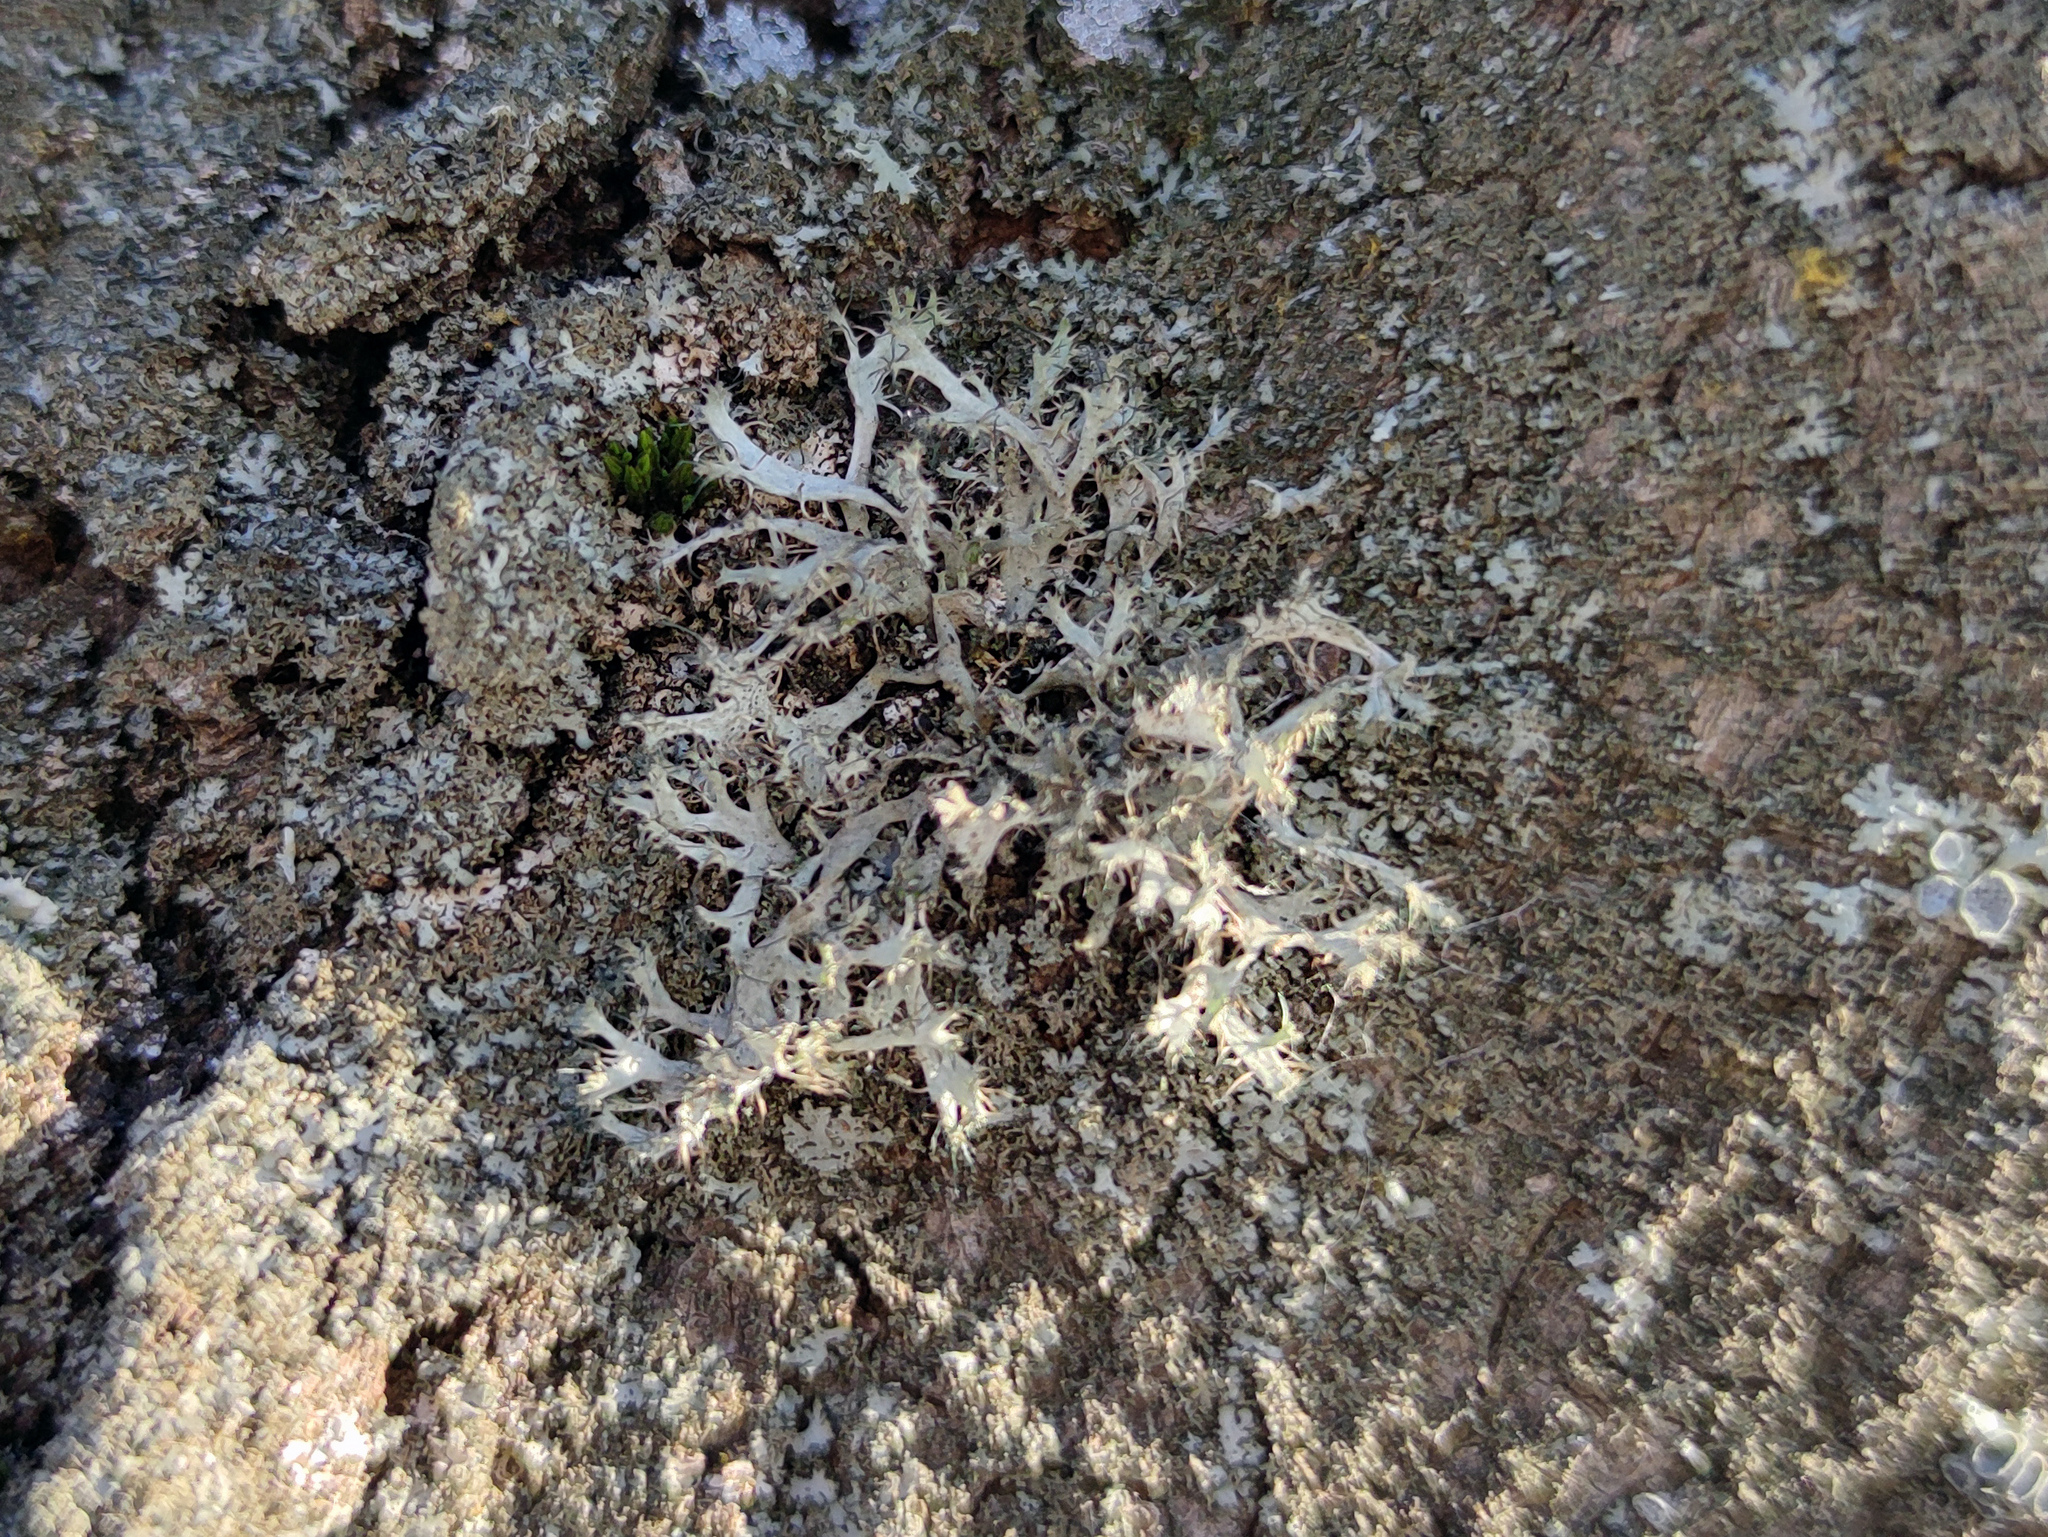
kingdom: Fungi
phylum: Ascomycota
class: Lecanoromycetes
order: Caliciales
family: Physciaceae
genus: Anaptychia
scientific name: Anaptychia ciliaris
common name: Great ciliated lichen
